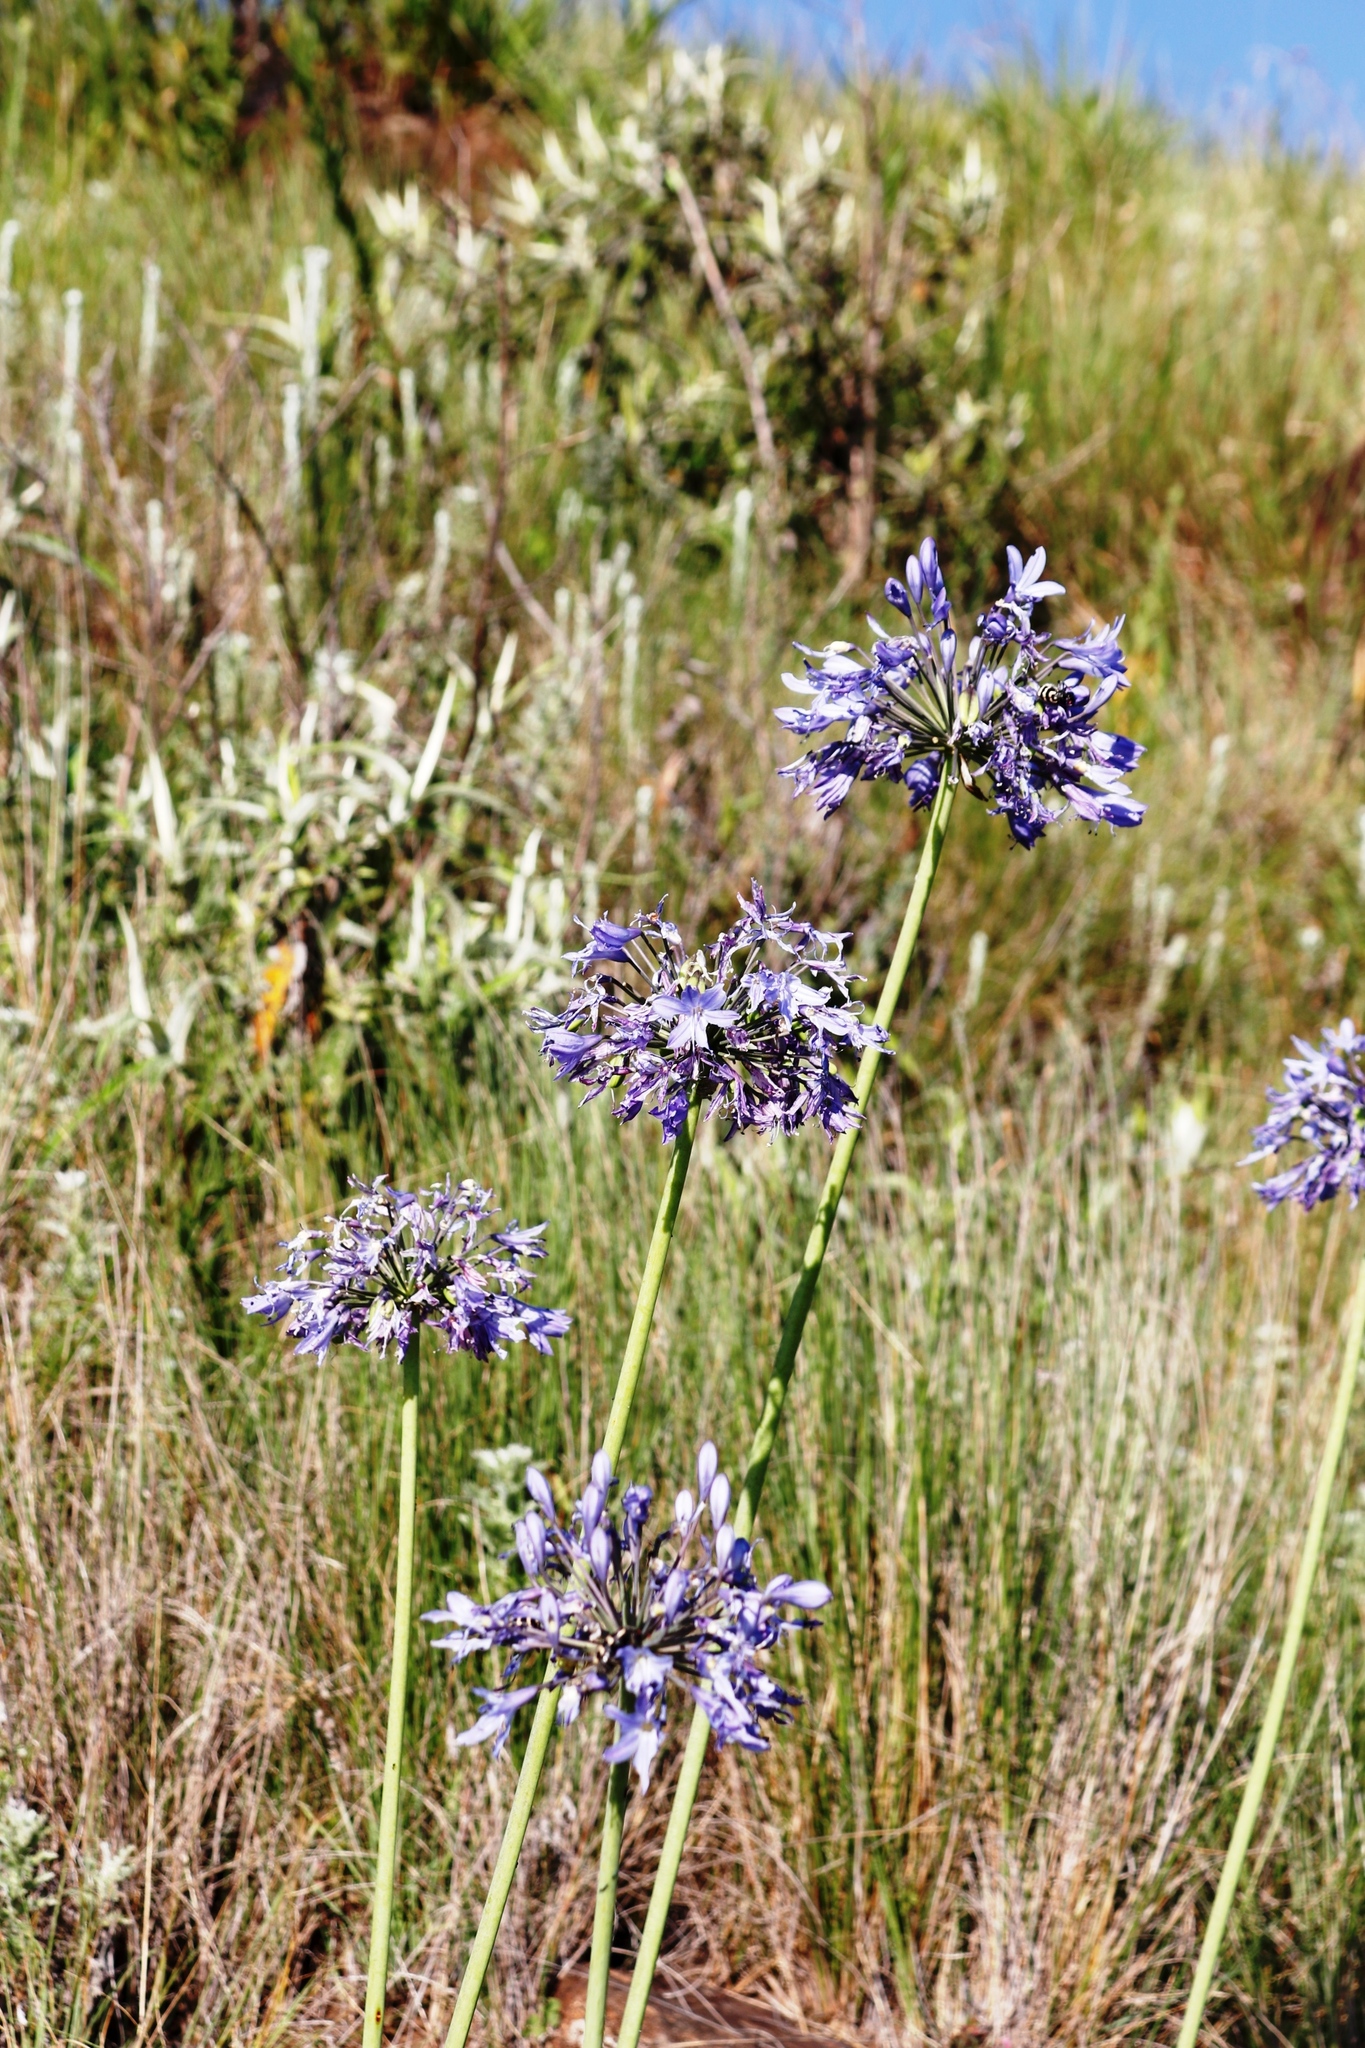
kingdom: Plantae
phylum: Tracheophyta
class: Liliopsida
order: Asparagales
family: Amaryllidaceae
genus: Agapanthus
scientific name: Agapanthus campanulatus
